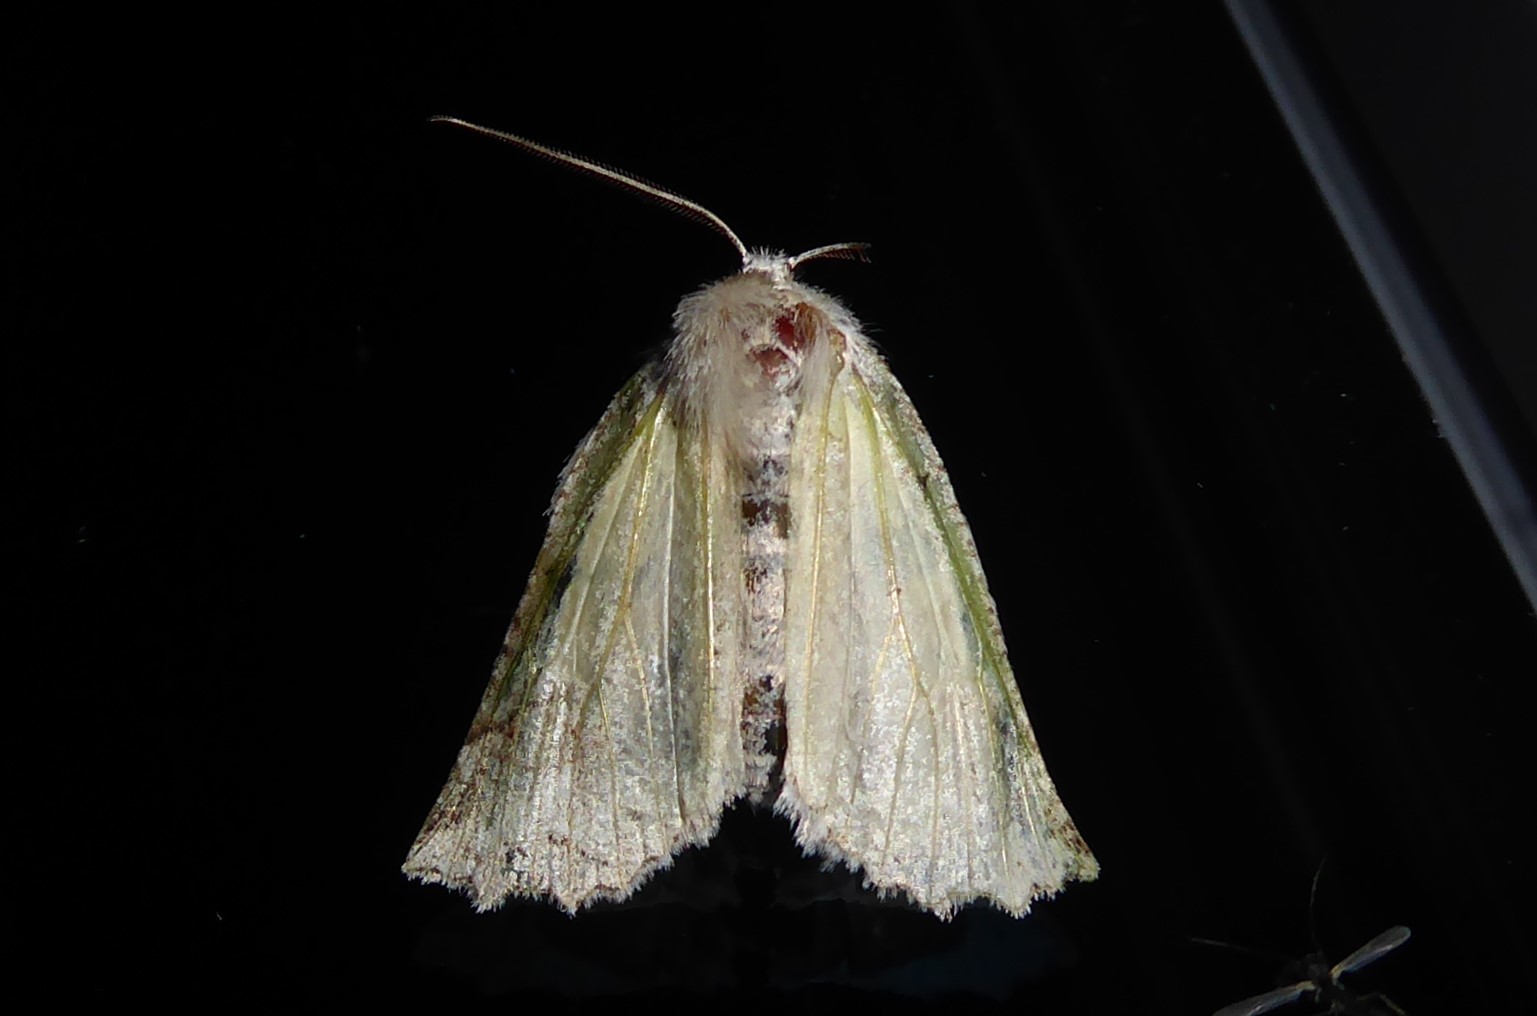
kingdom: Animalia
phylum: Arthropoda
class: Insecta
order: Lepidoptera
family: Geometridae
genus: Declana
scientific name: Declana floccosa
